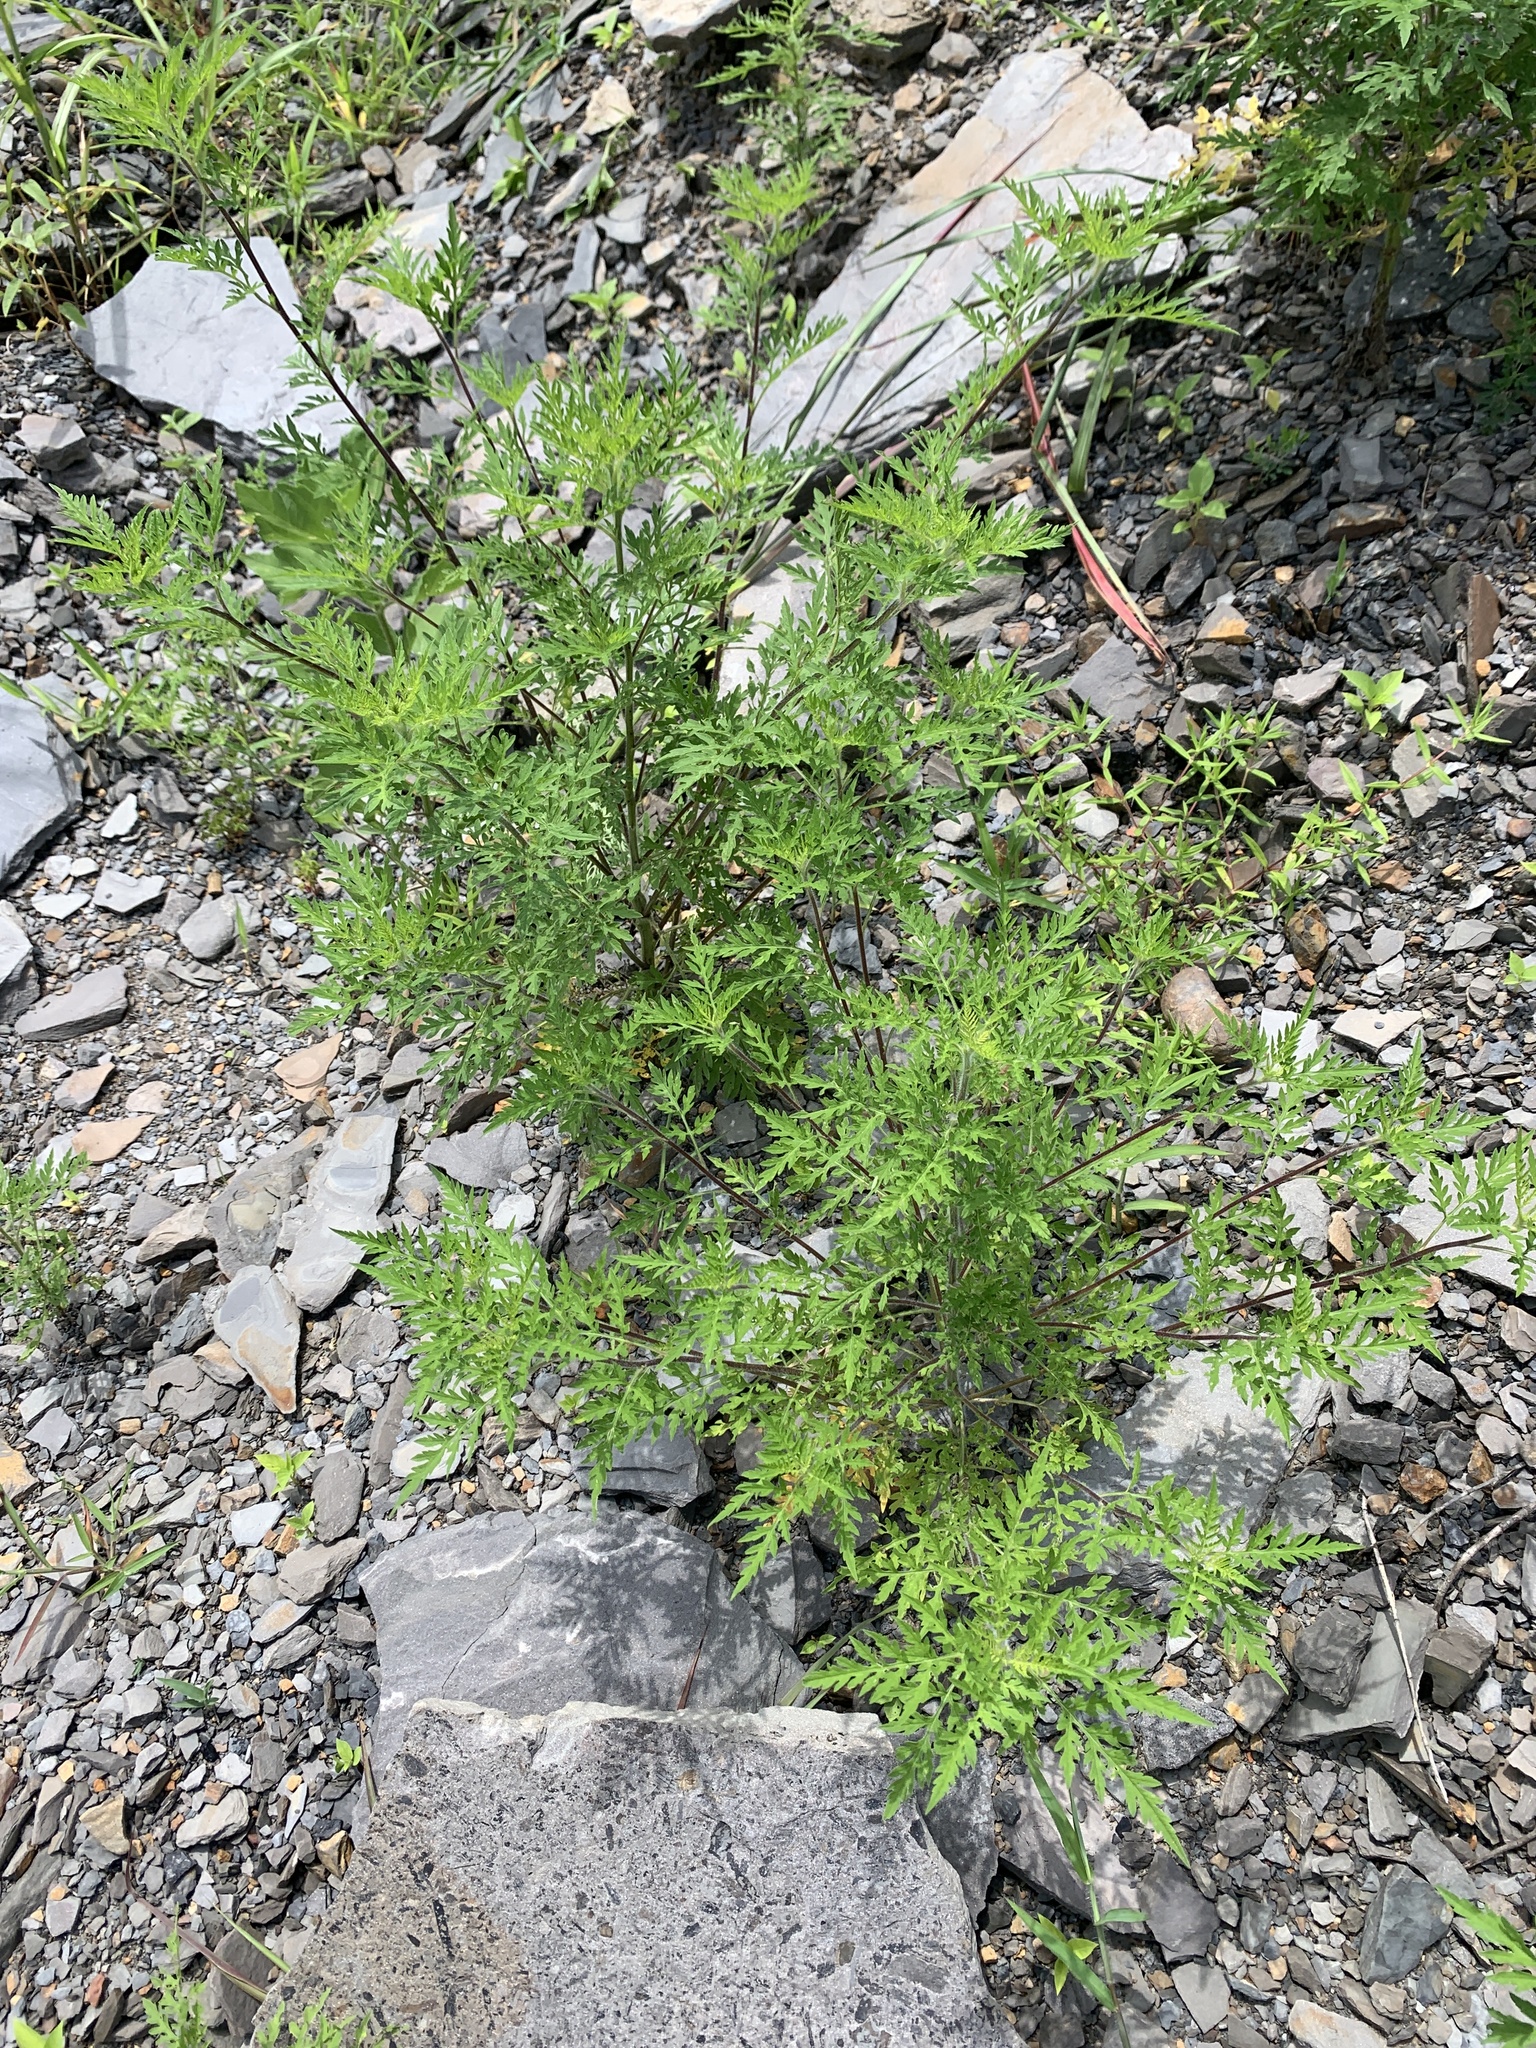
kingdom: Plantae
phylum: Tracheophyta
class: Magnoliopsida
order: Asterales
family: Asteraceae
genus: Ambrosia
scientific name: Ambrosia artemisiifolia
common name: Annual ragweed
